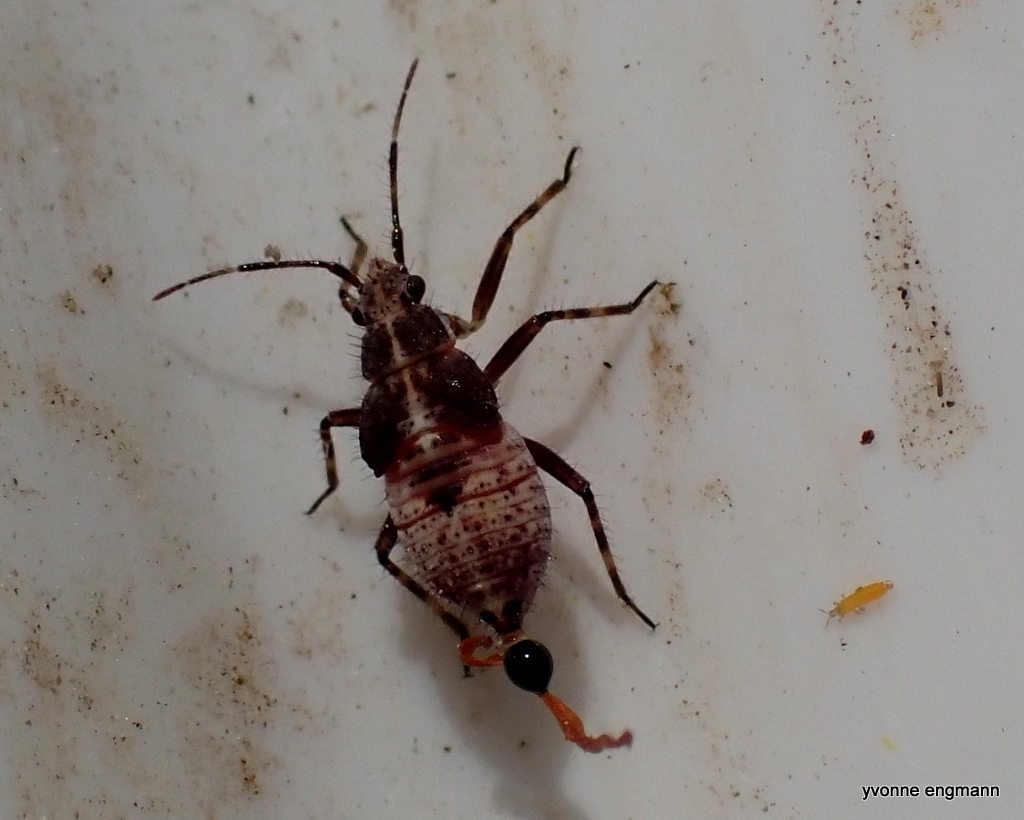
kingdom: Animalia
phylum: Arthropoda
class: Insecta
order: Hemiptera
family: Miridae
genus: Deraeocoris
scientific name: Deraeocoris flavilinea
